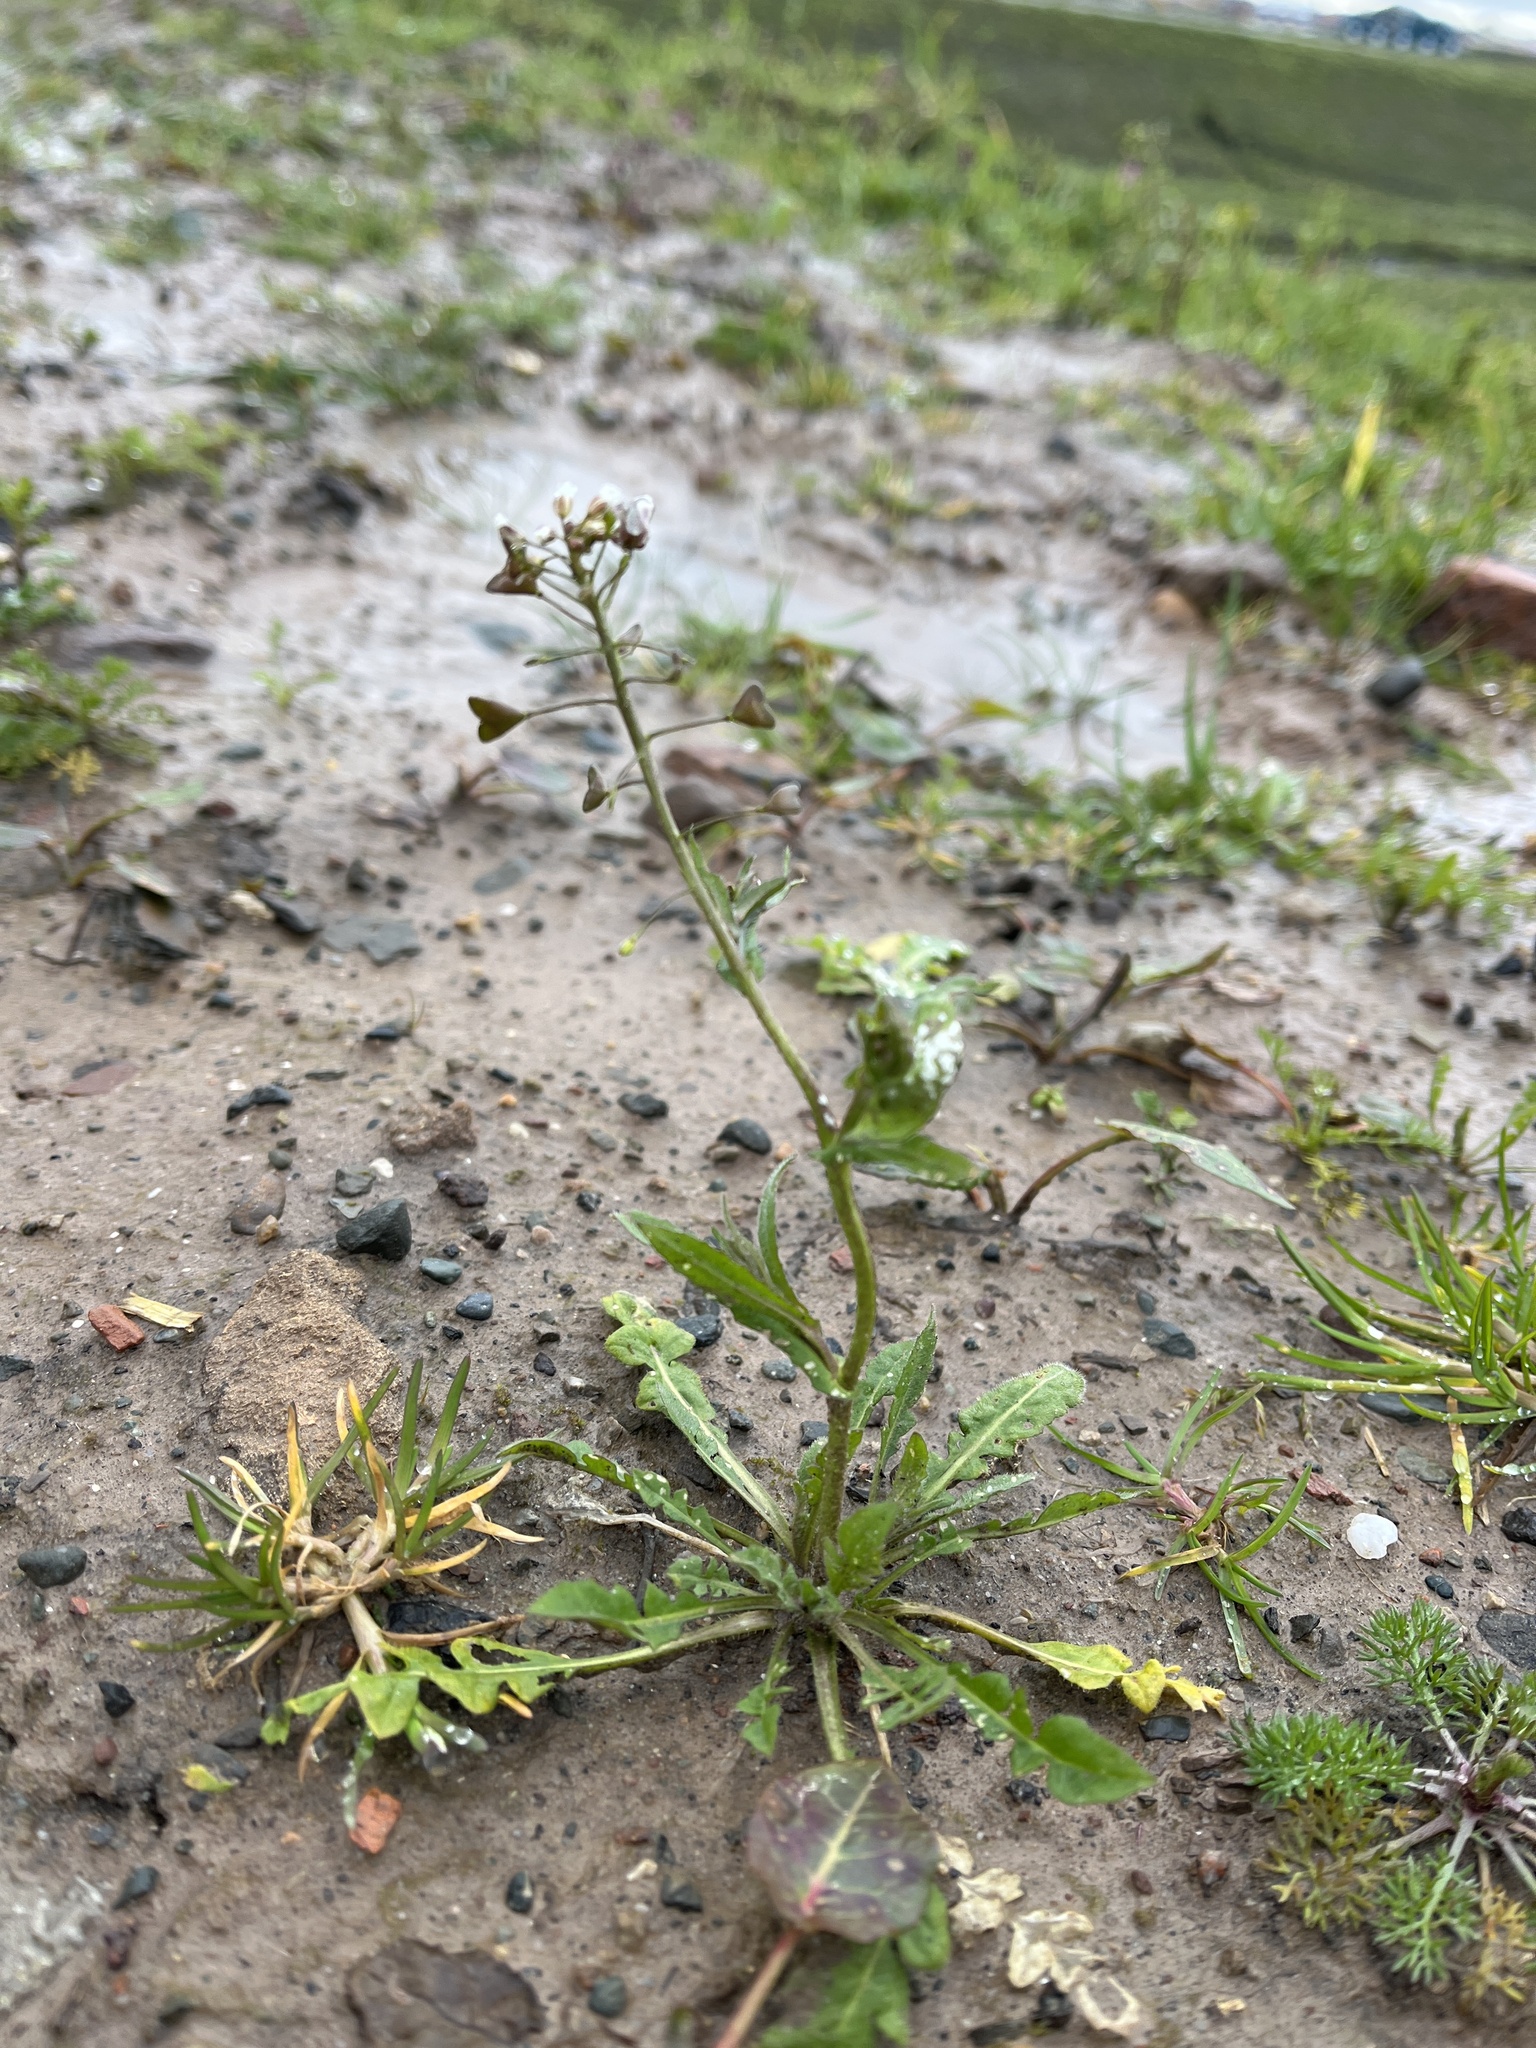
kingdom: Plantae
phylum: Tracheophyta
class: Magnoliopsida
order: Brassicales
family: Brassicaceae
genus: Capsella
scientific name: Capsella bursa-pastoris
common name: Shepherd's purse
